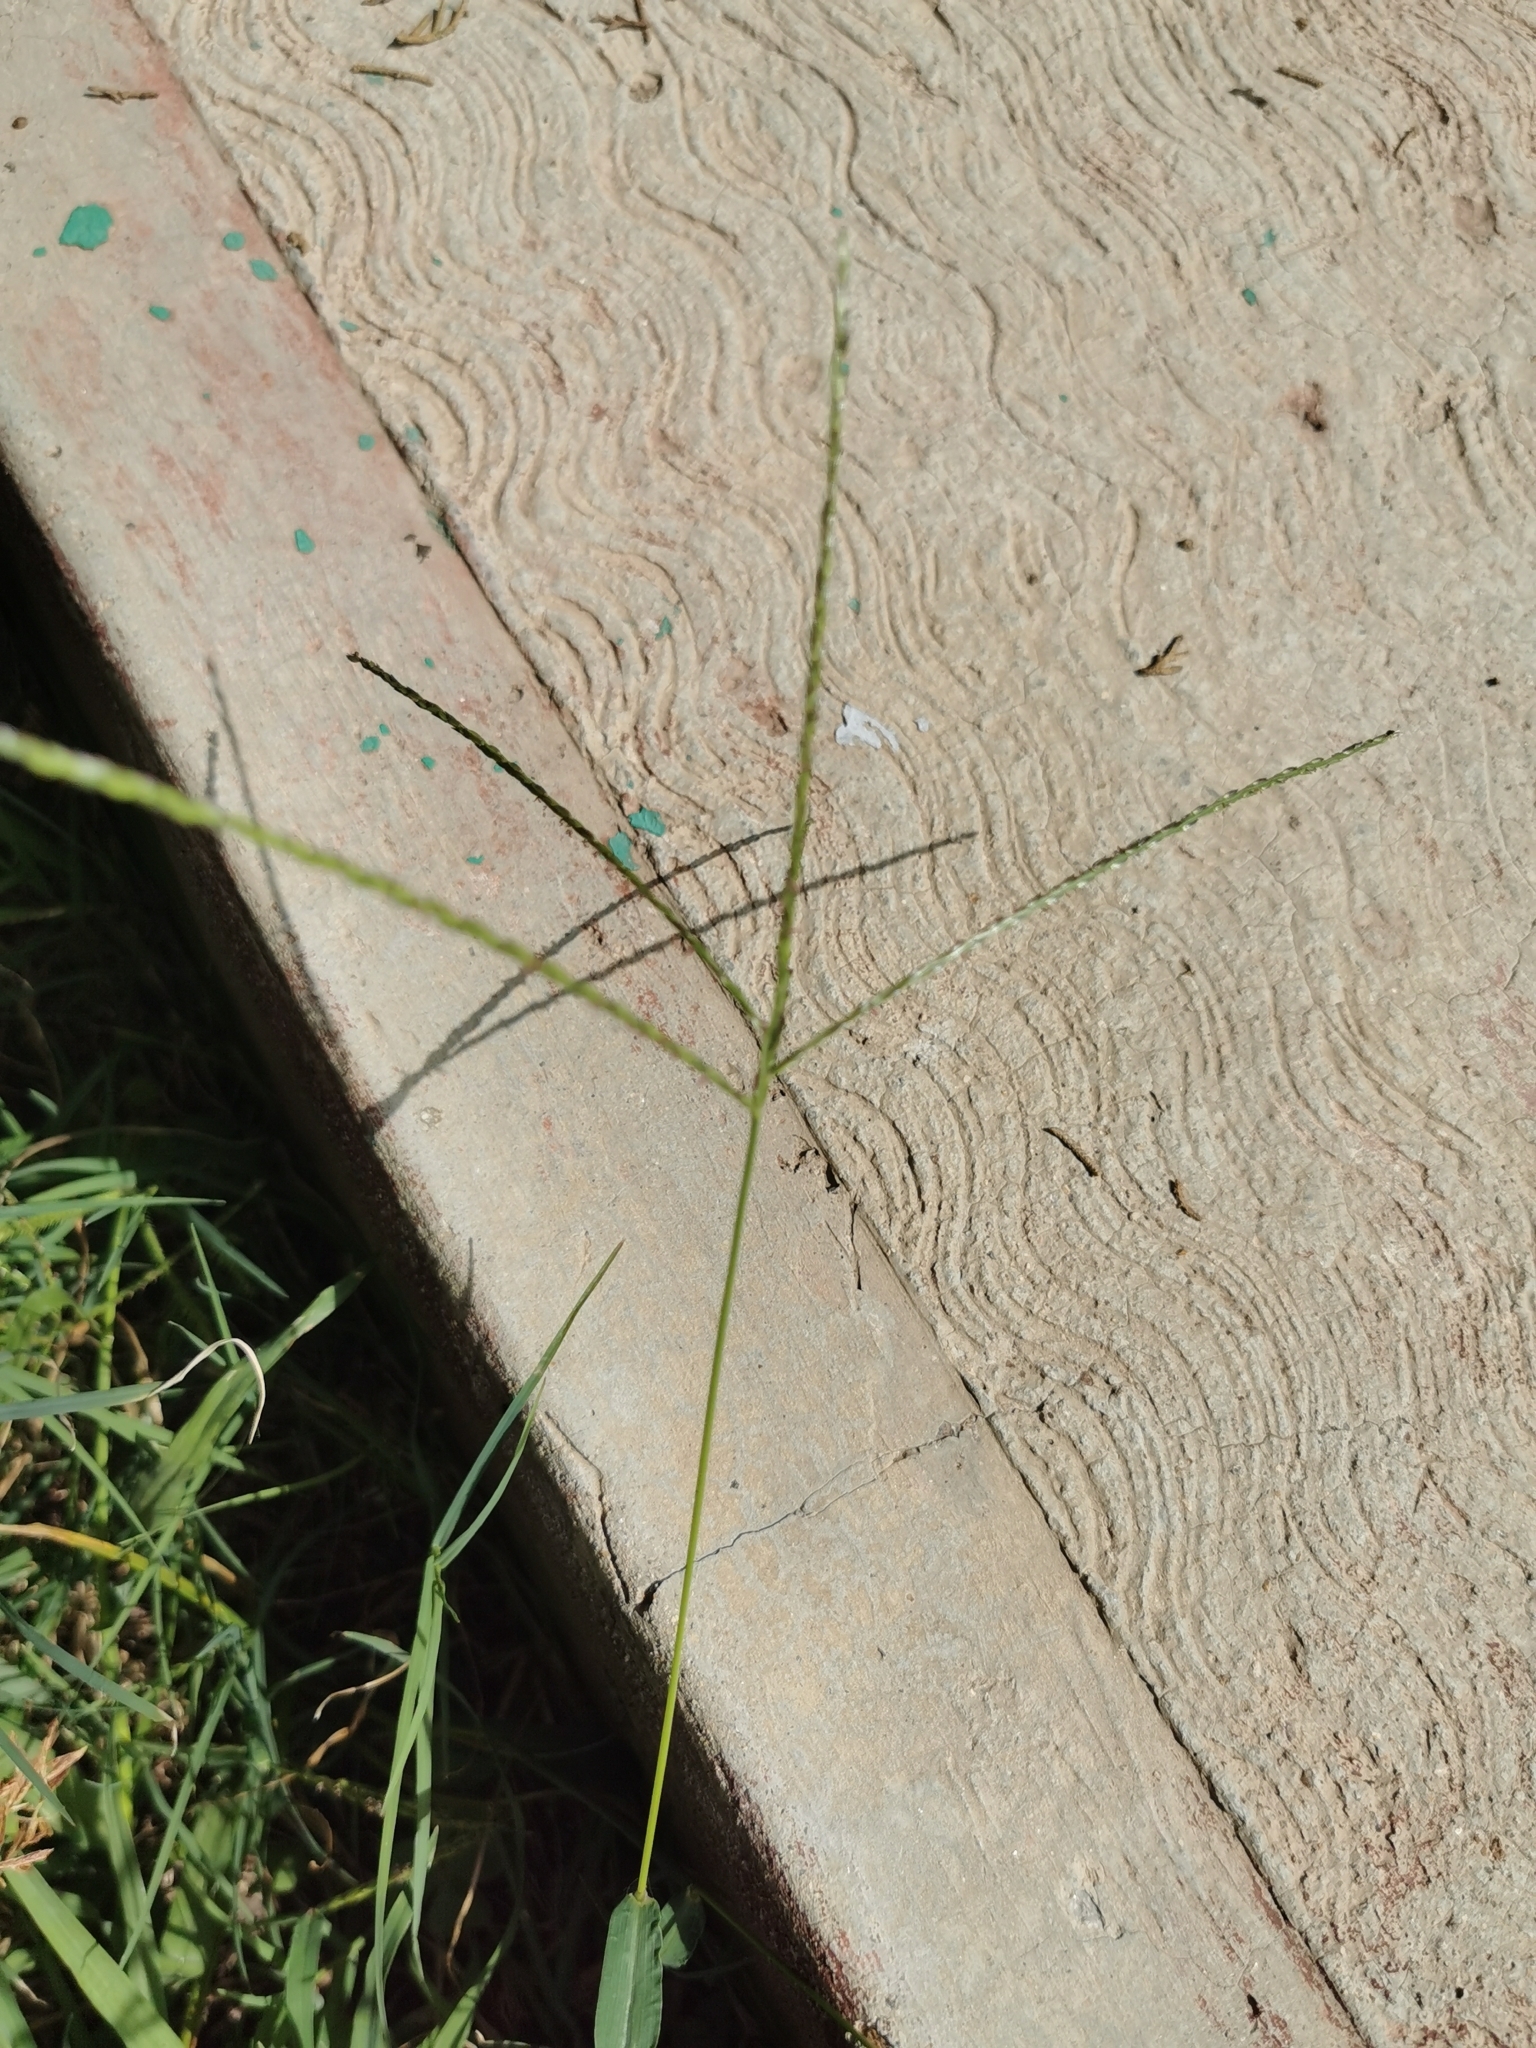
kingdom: Plantae
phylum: Tracheophyta
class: Liliopsida
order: Poales
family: Poaceae
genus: Digitaria
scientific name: Digitaria ternata
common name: Blackseed crabgrass
